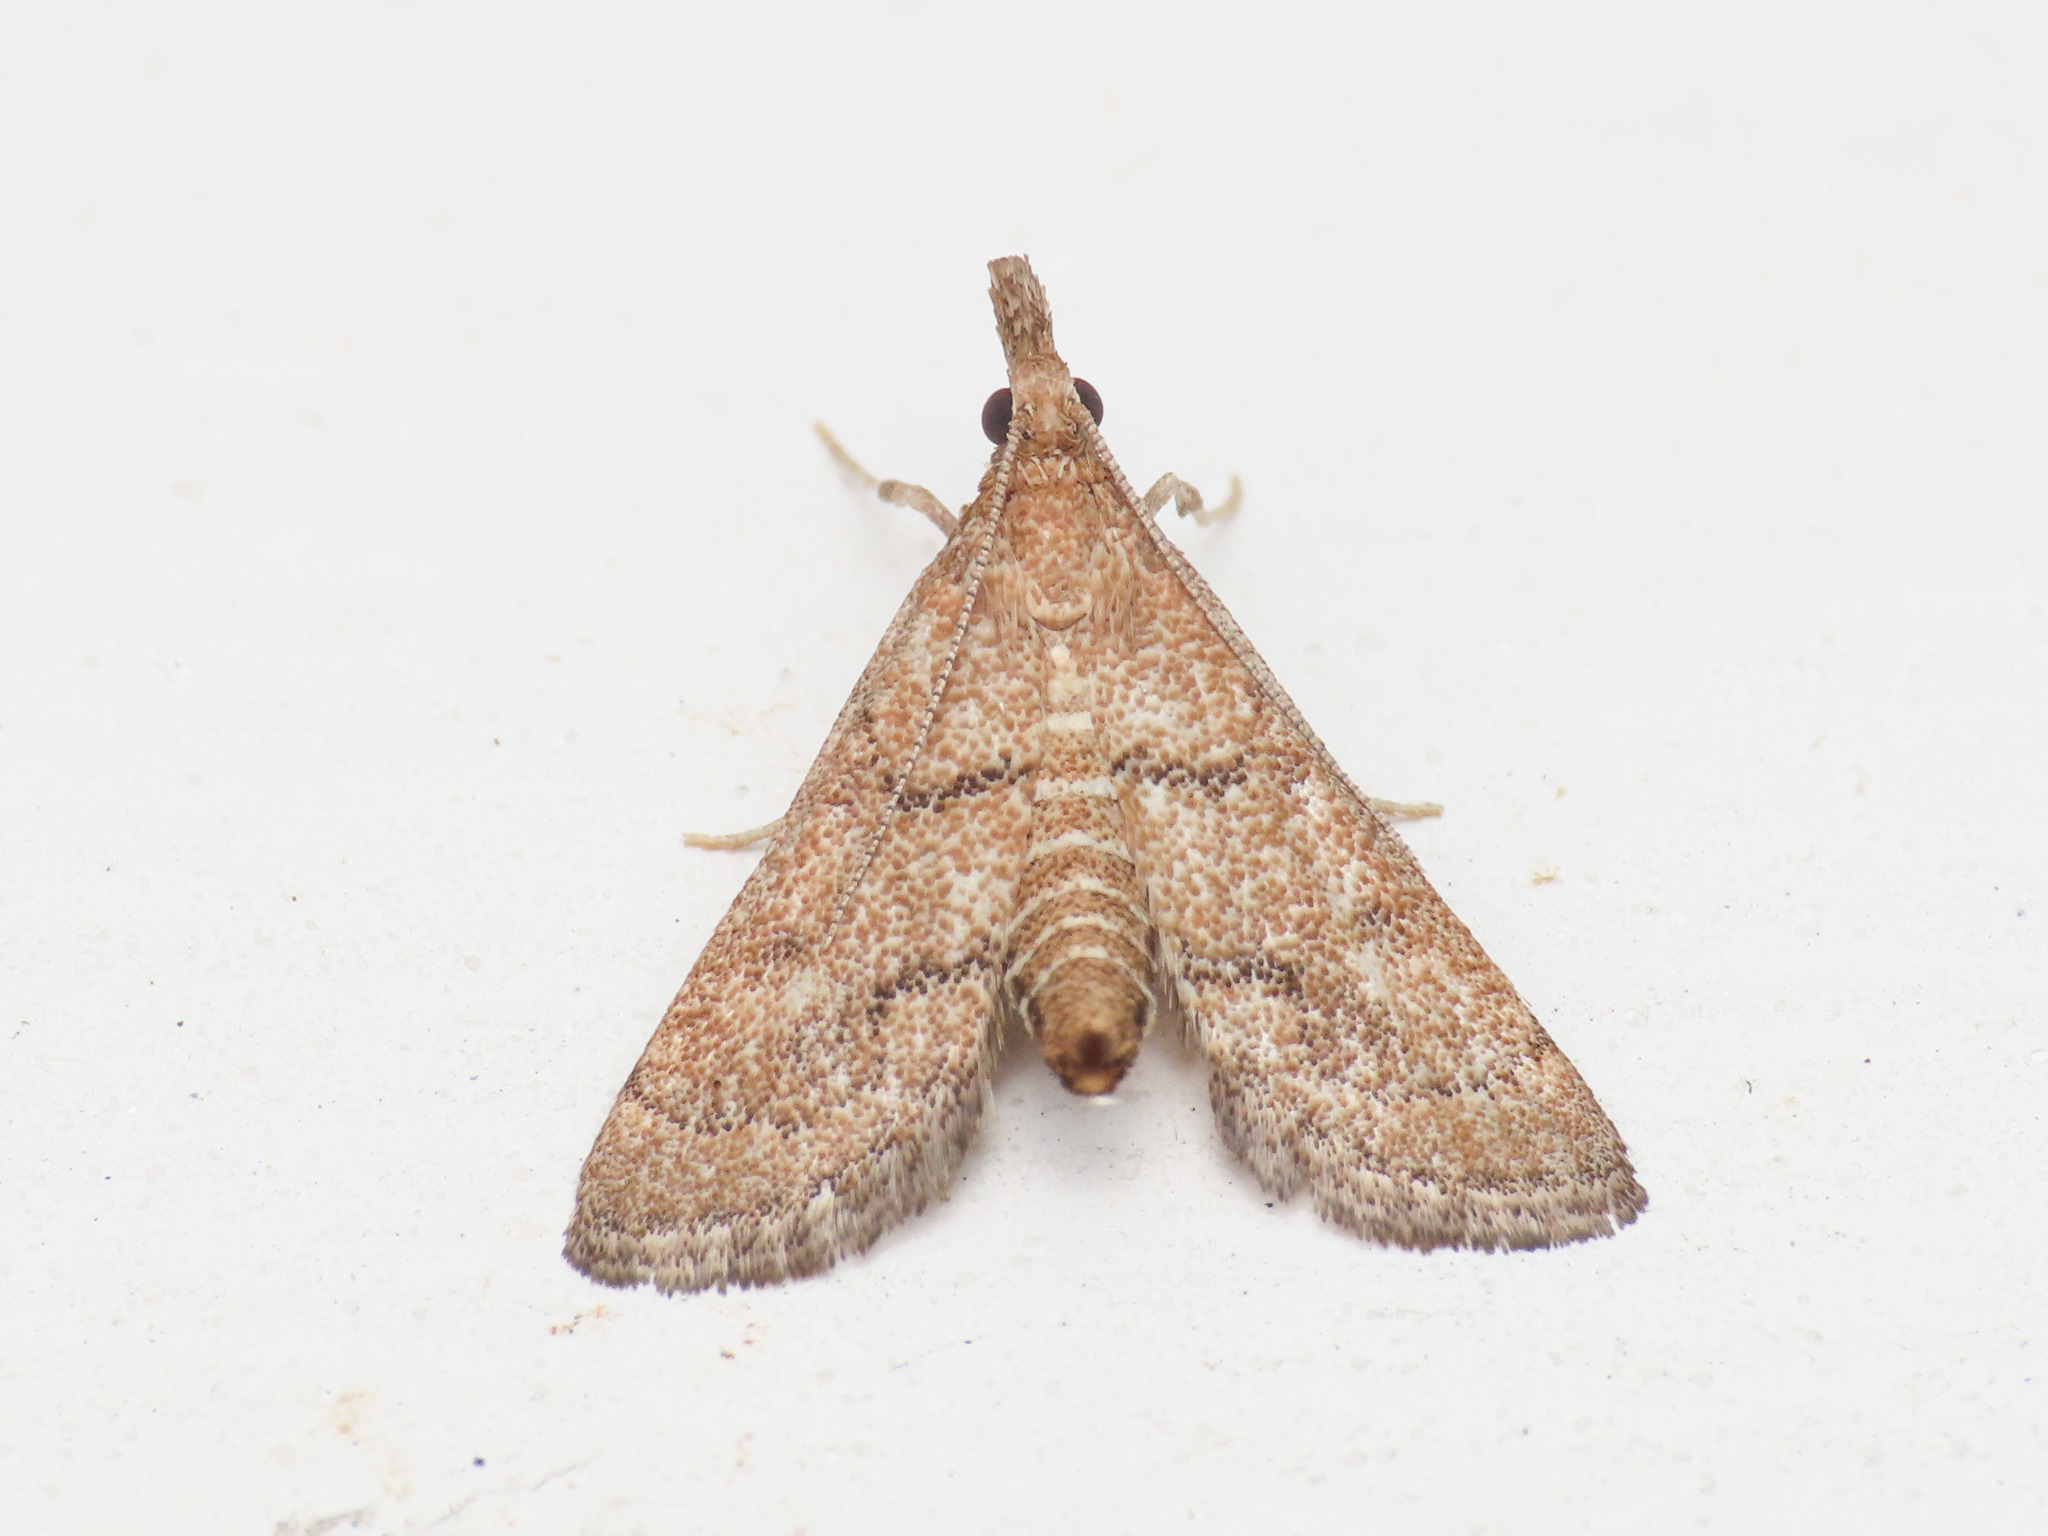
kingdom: Animalia
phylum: Arthropoda
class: Insecta
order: Lepidoptera
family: Crambidae
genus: Metasia
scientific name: Metasia carnealis
